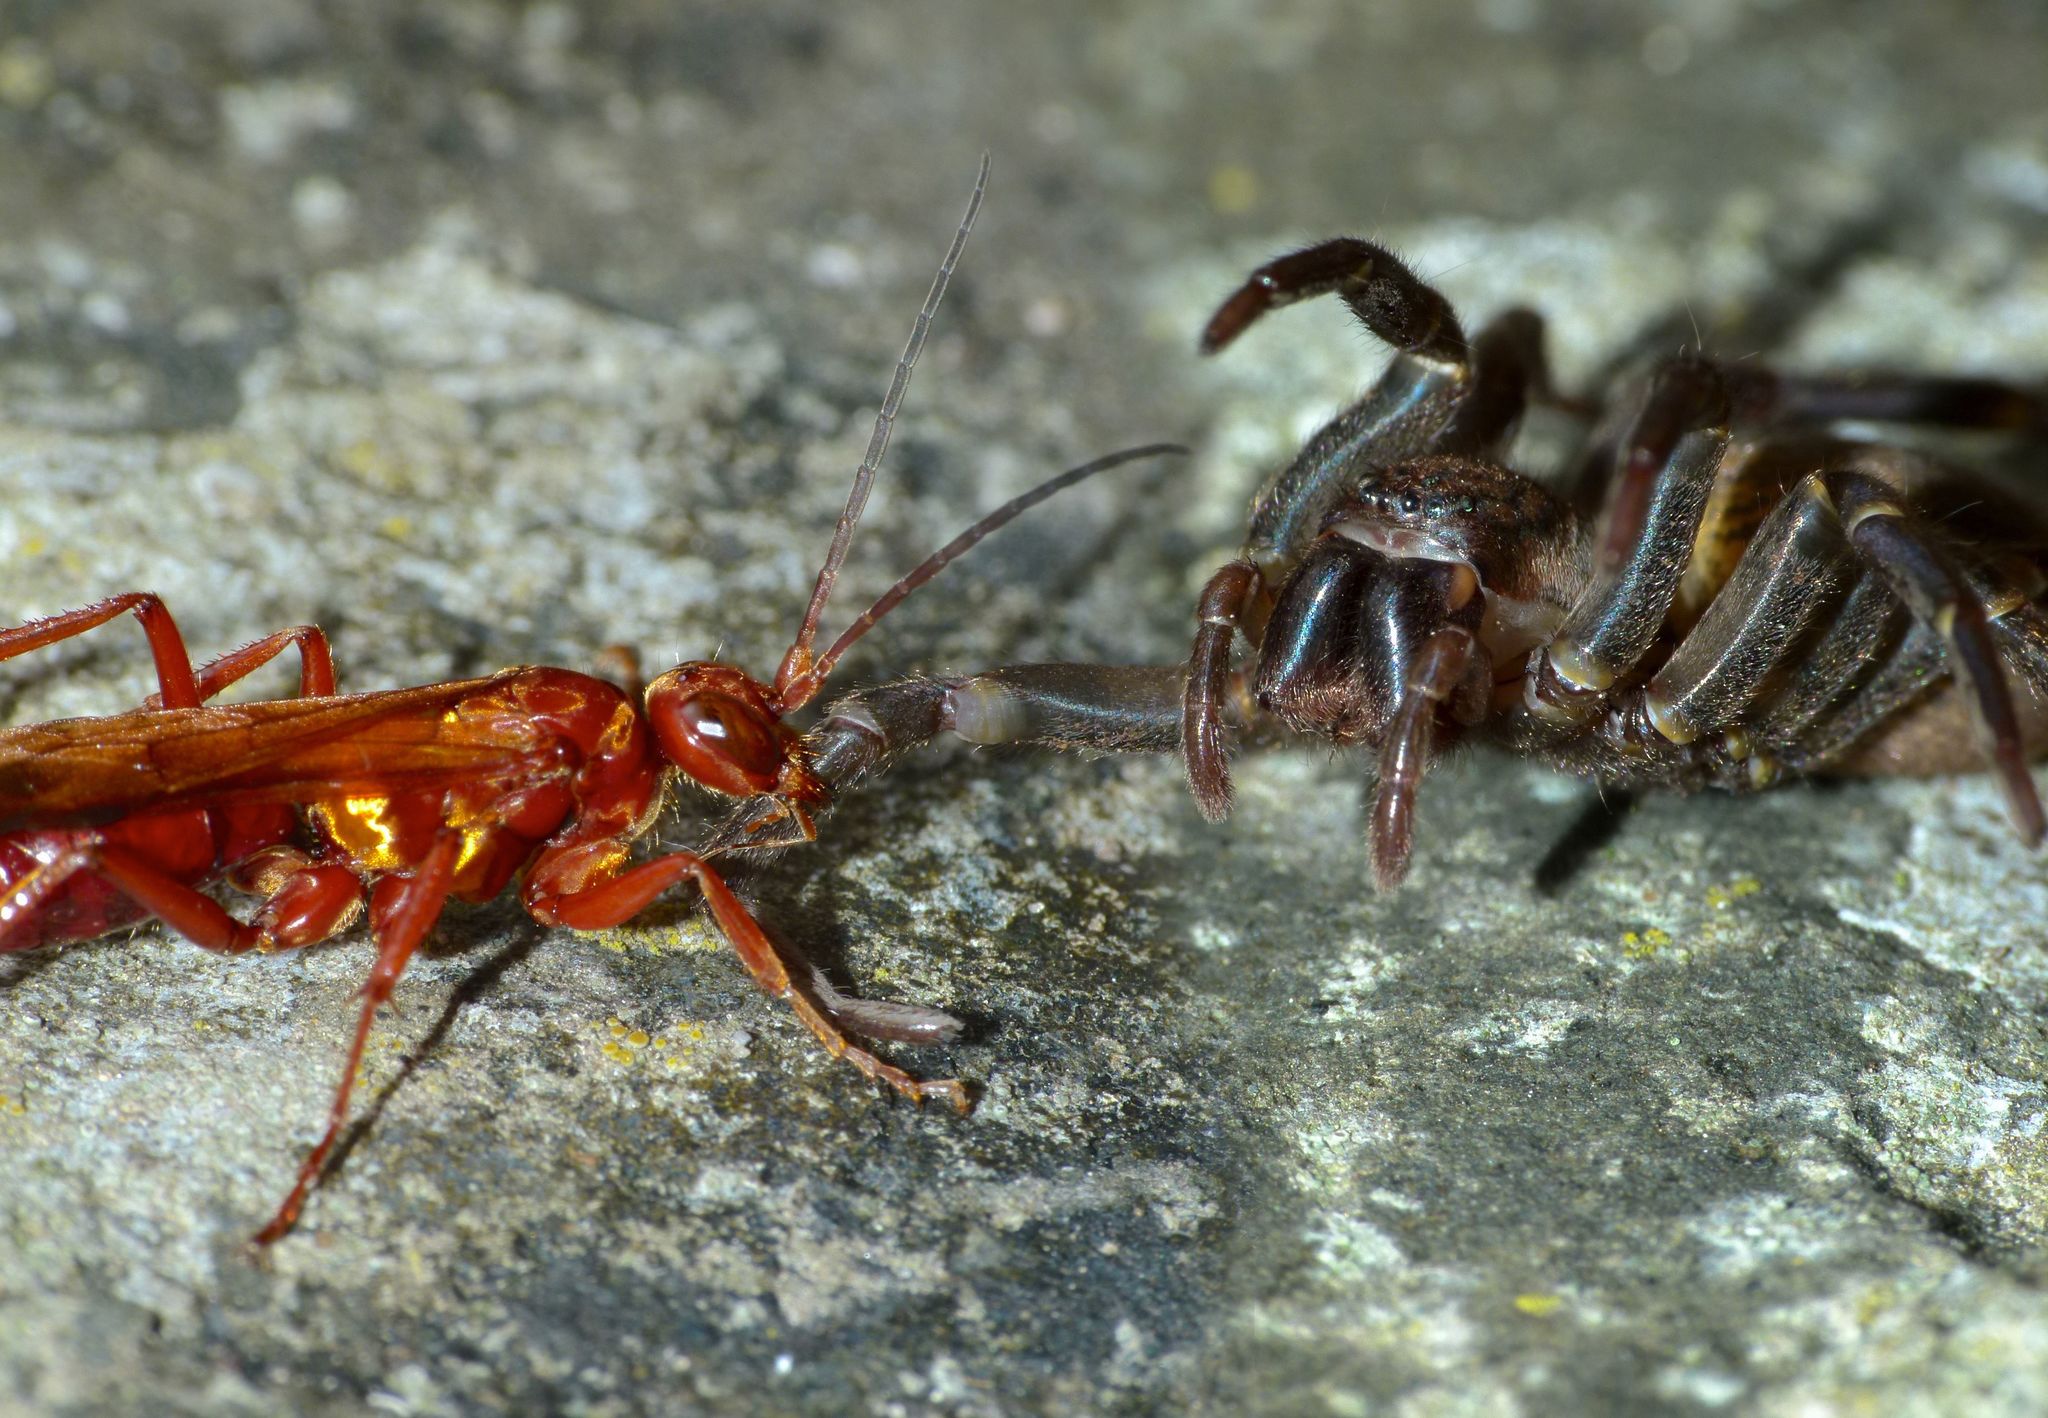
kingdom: Animalia
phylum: Arthropoda
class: Insecta
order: Hymenoptera
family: Pompilidae
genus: Sphictostethus
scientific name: Sphictostethus nitidus
